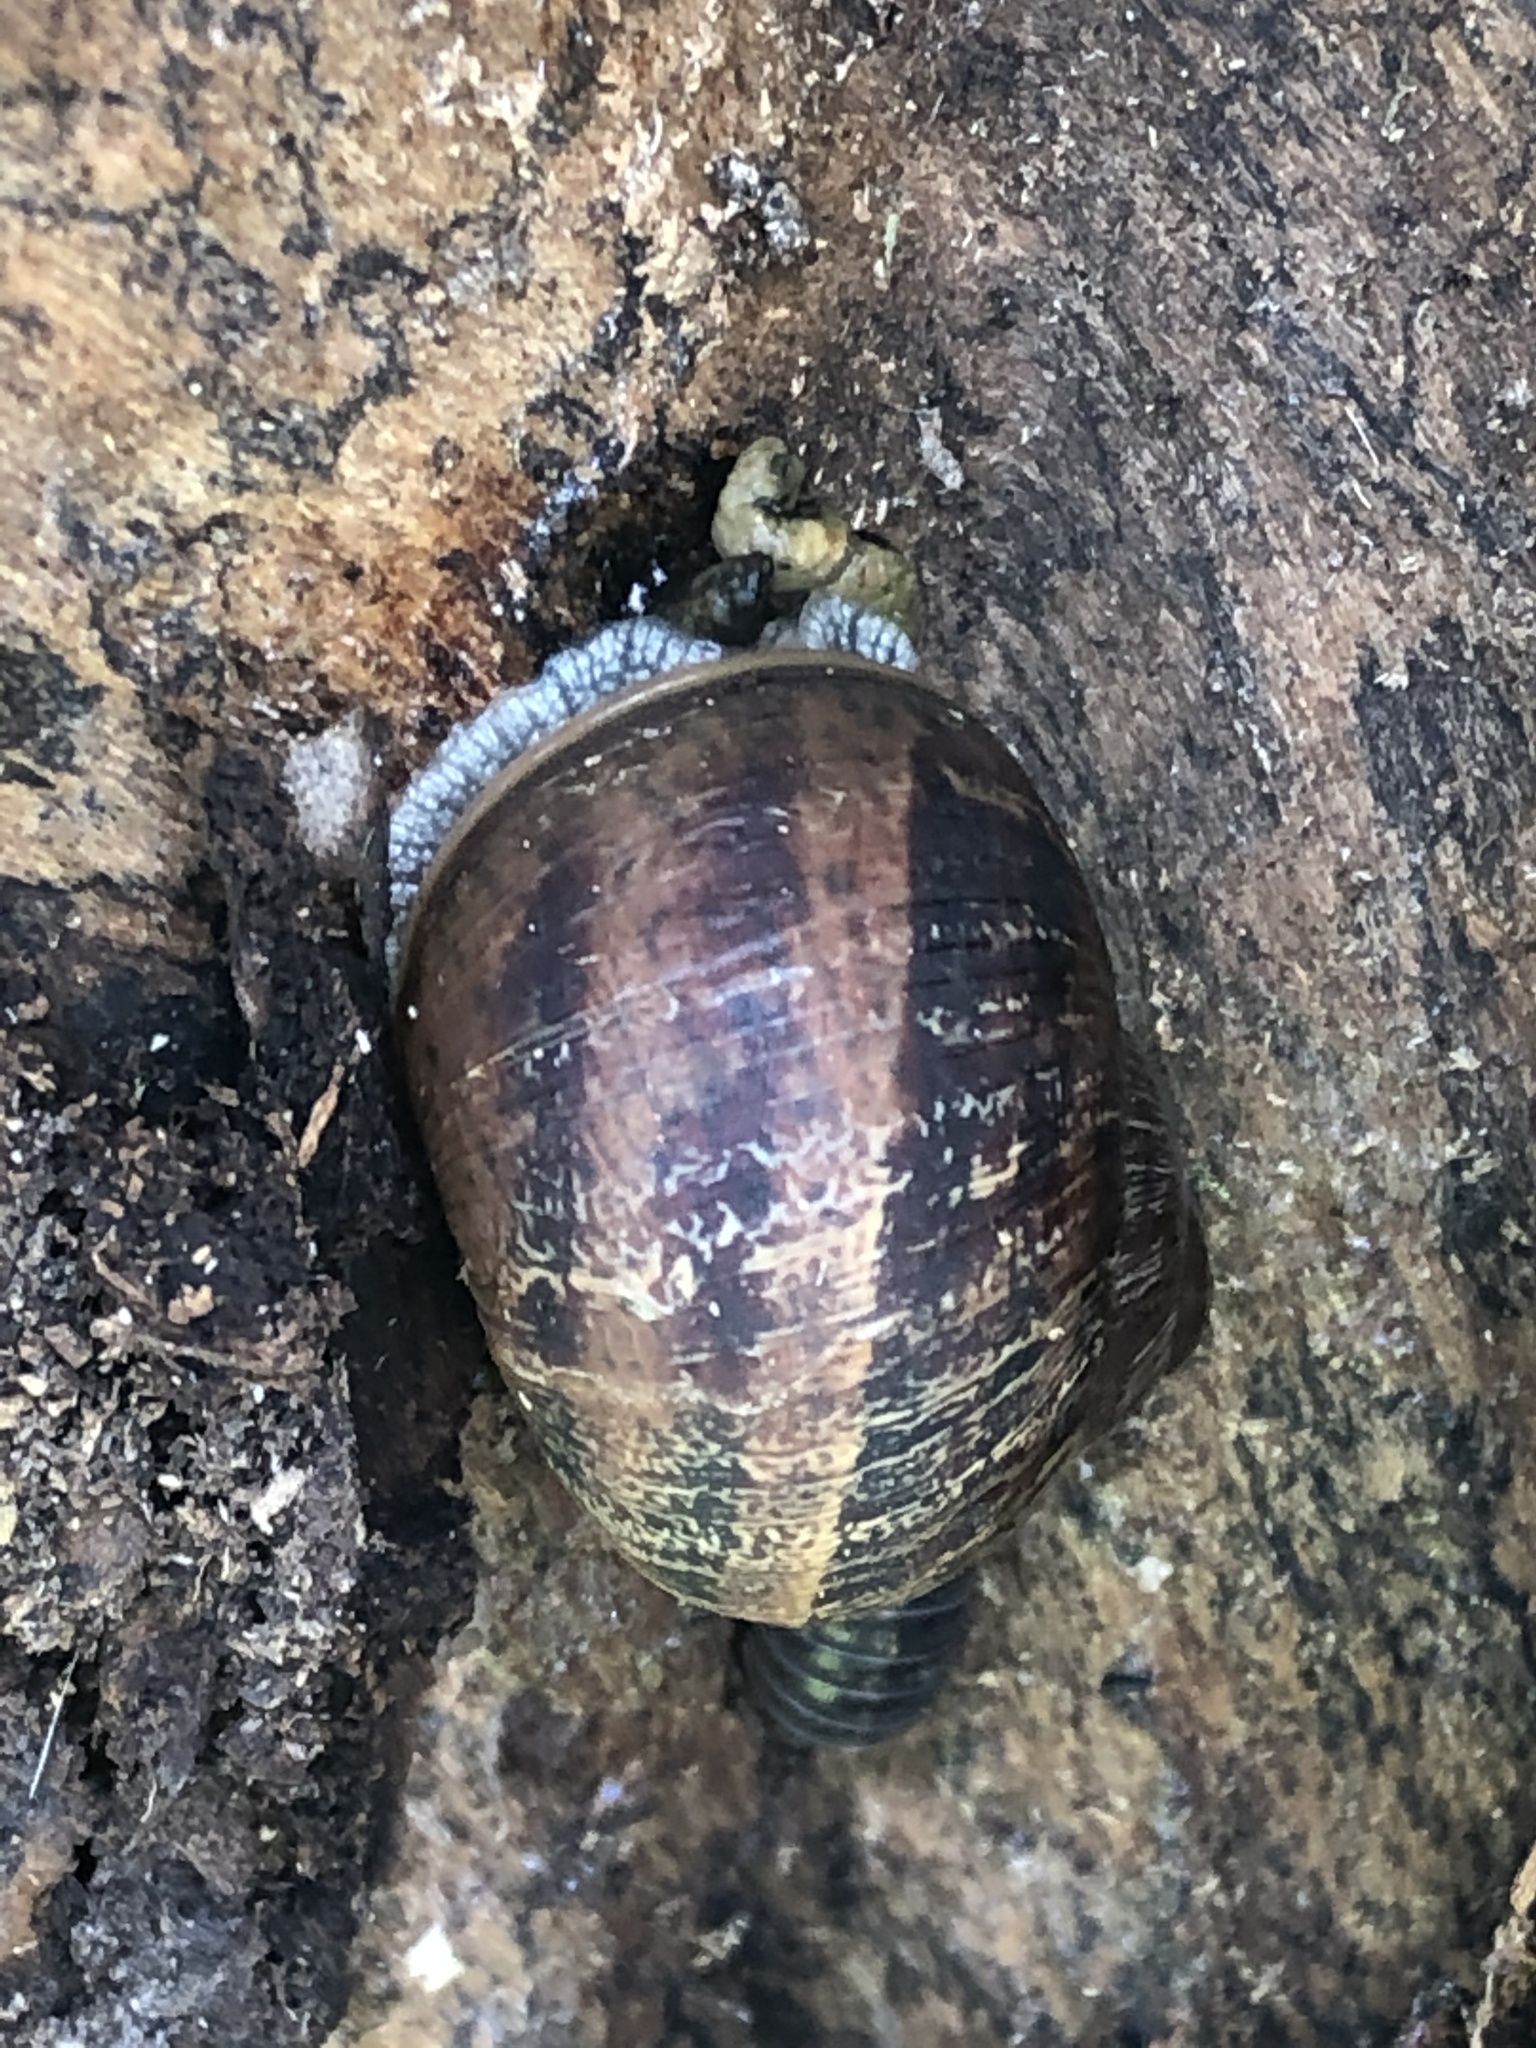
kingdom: Animalia
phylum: Mollusca
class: Gastropoda
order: Stylommatophora
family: Helicidae
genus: Cornu
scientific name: Cornu aspersum
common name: Brown garden snail
